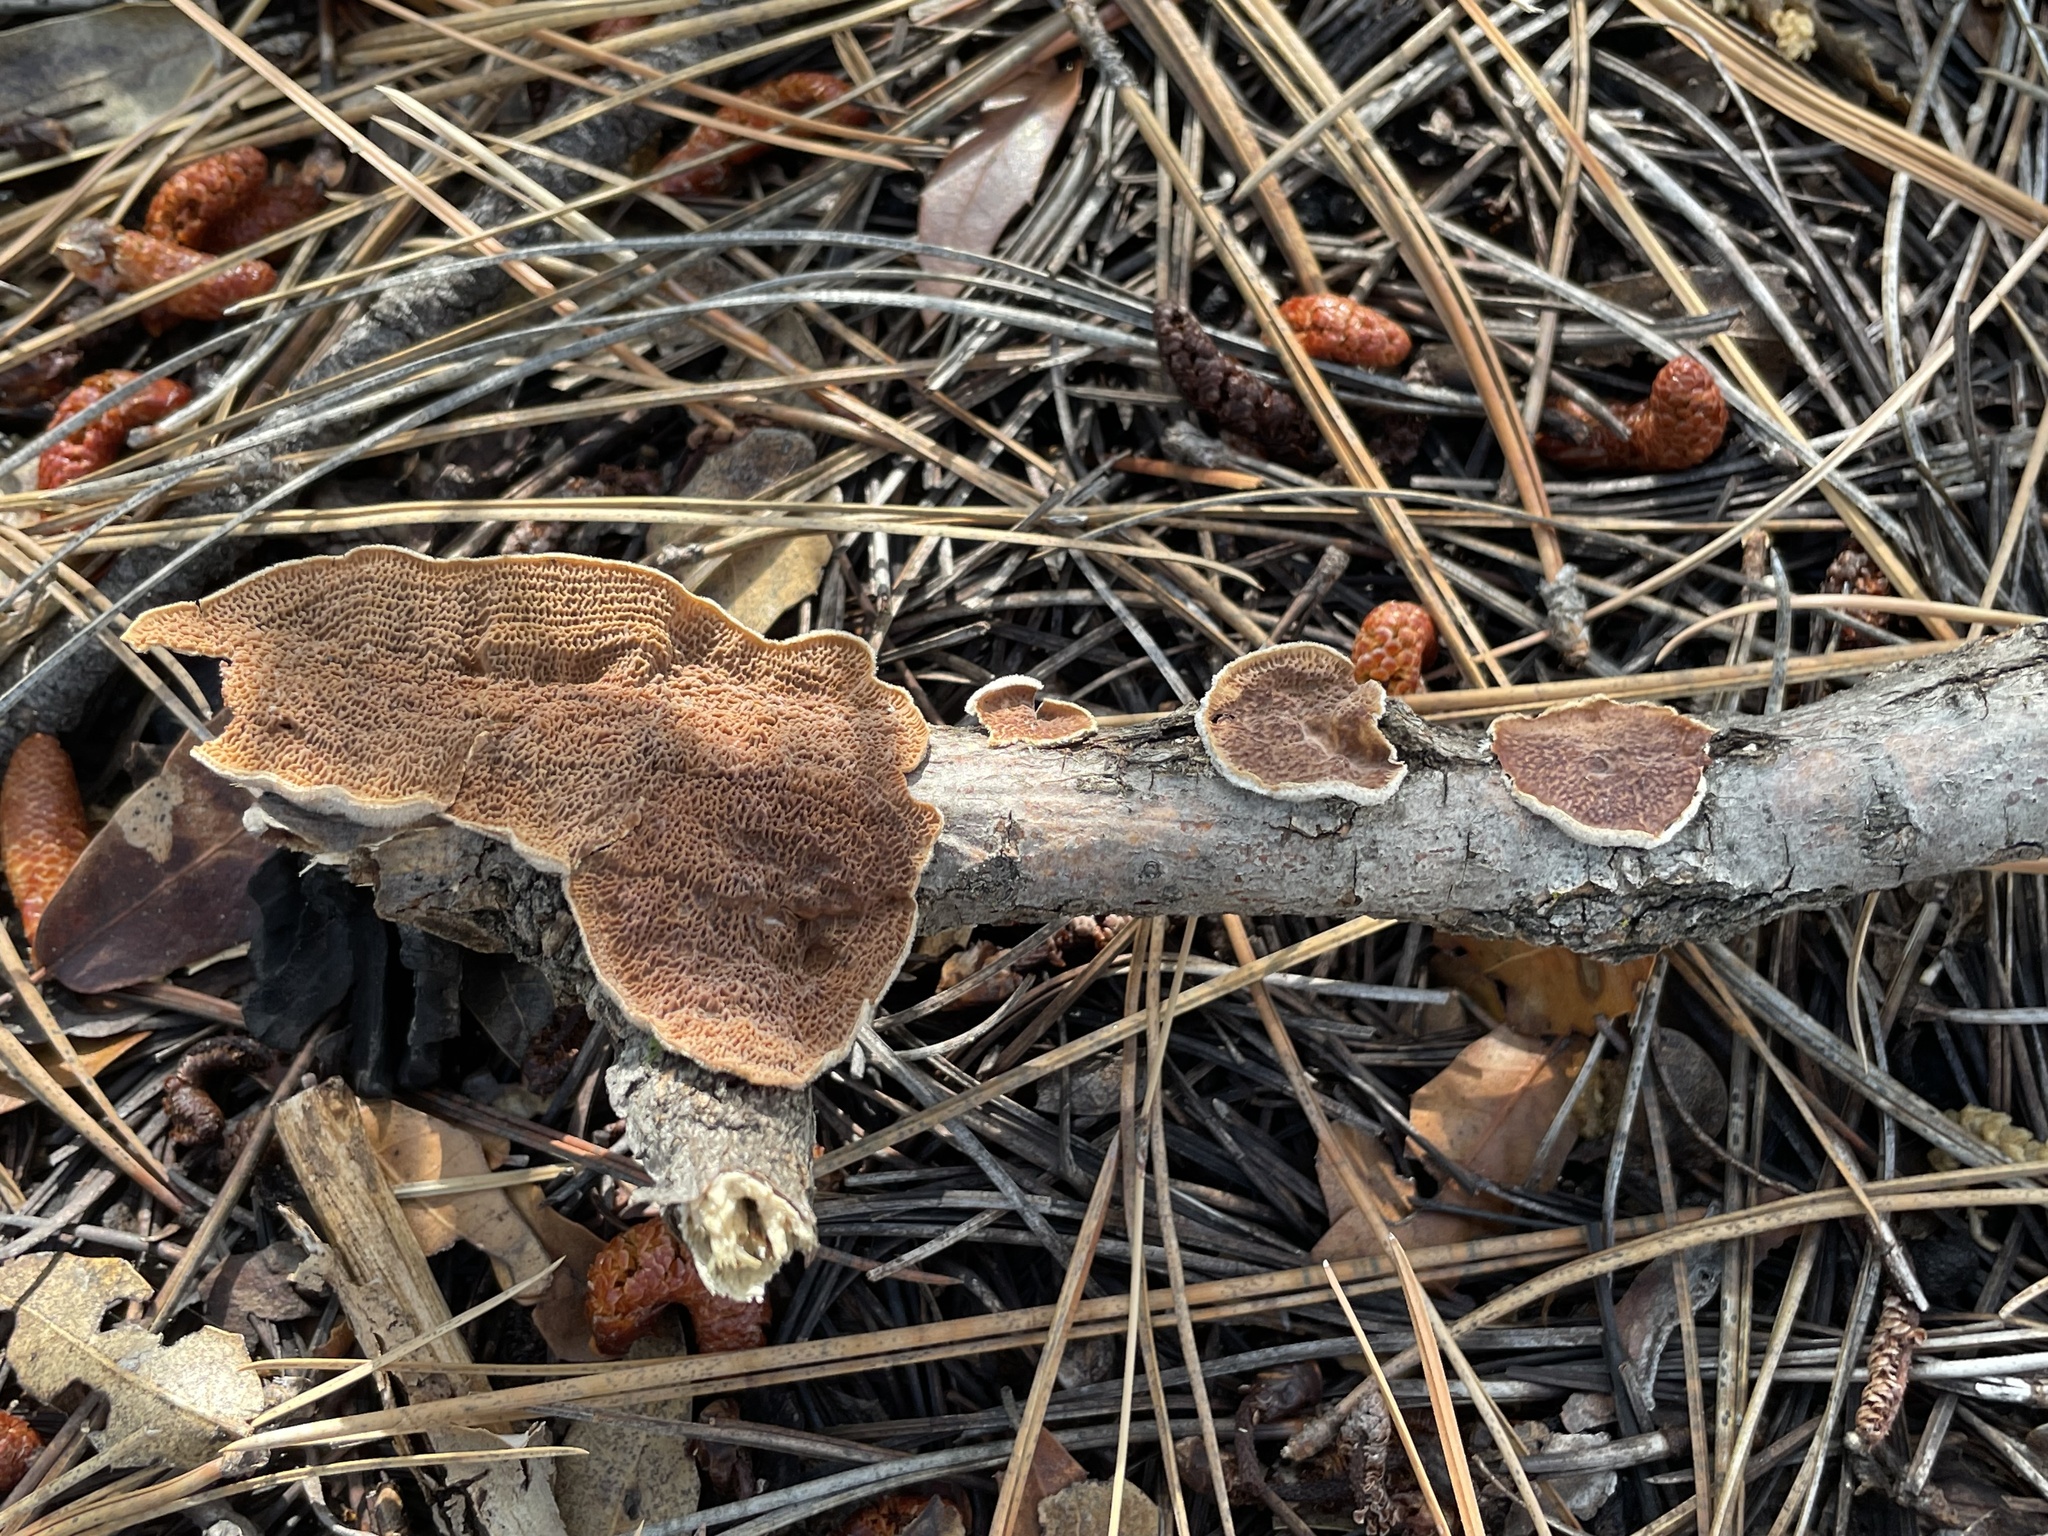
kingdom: Fungi
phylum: Basidiomycota
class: Agaricomycetes
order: Polyporales
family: Irpicaceae
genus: Byssomerulius
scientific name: Byssomerulius corium
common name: Netted crust
